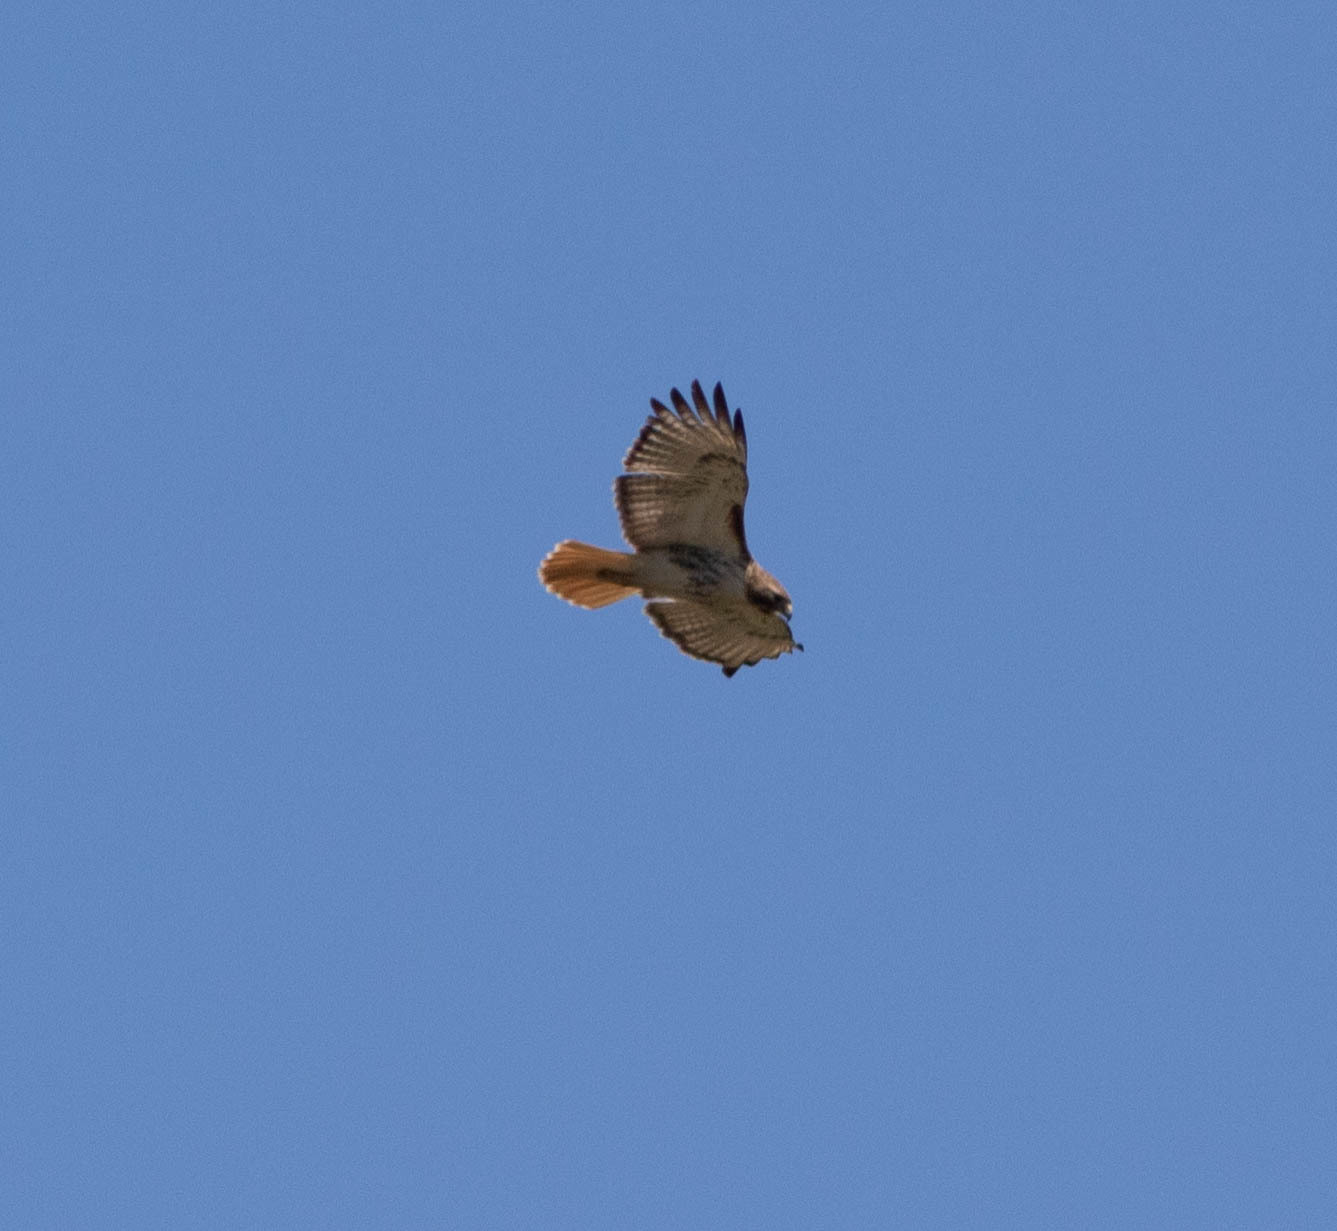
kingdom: Animalia
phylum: Chordata
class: Aves
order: Accipitriformes
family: Accipitridae
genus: Buteo
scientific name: Buteo jamaicensis
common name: Red-tailed hawk
